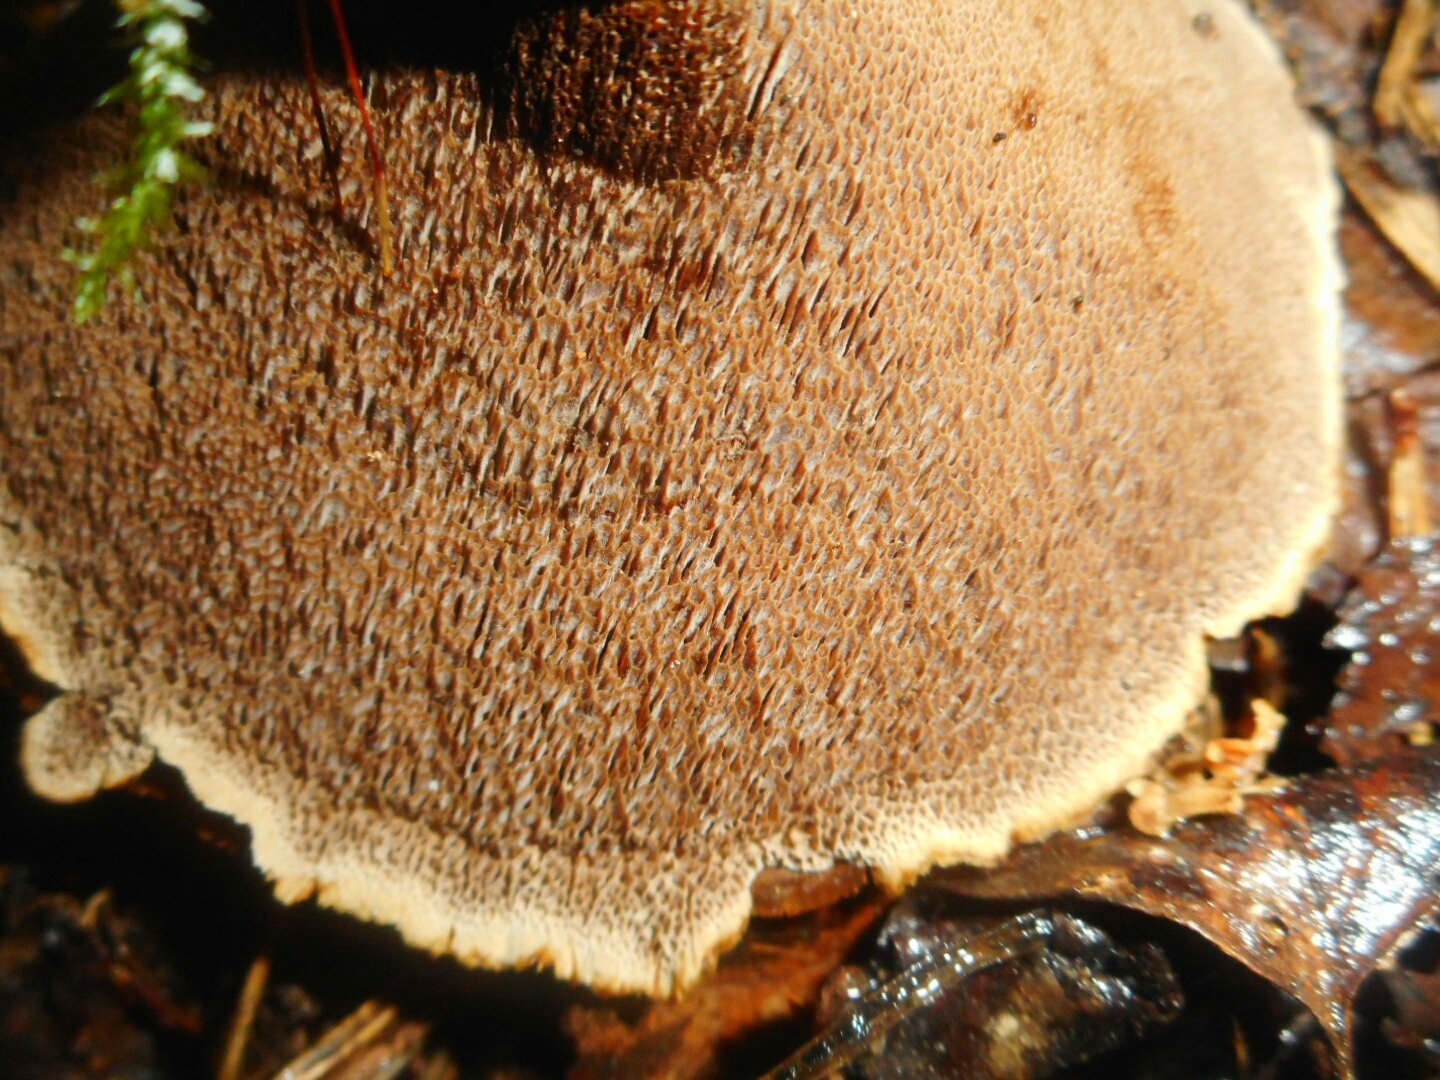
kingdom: Fungi
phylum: Basidiomycota
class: Agaricomycetes
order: Hymenochaetales
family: Hymenochaetaceae
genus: Coltricia
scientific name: Coltricia perennis
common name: Tiger's eye
